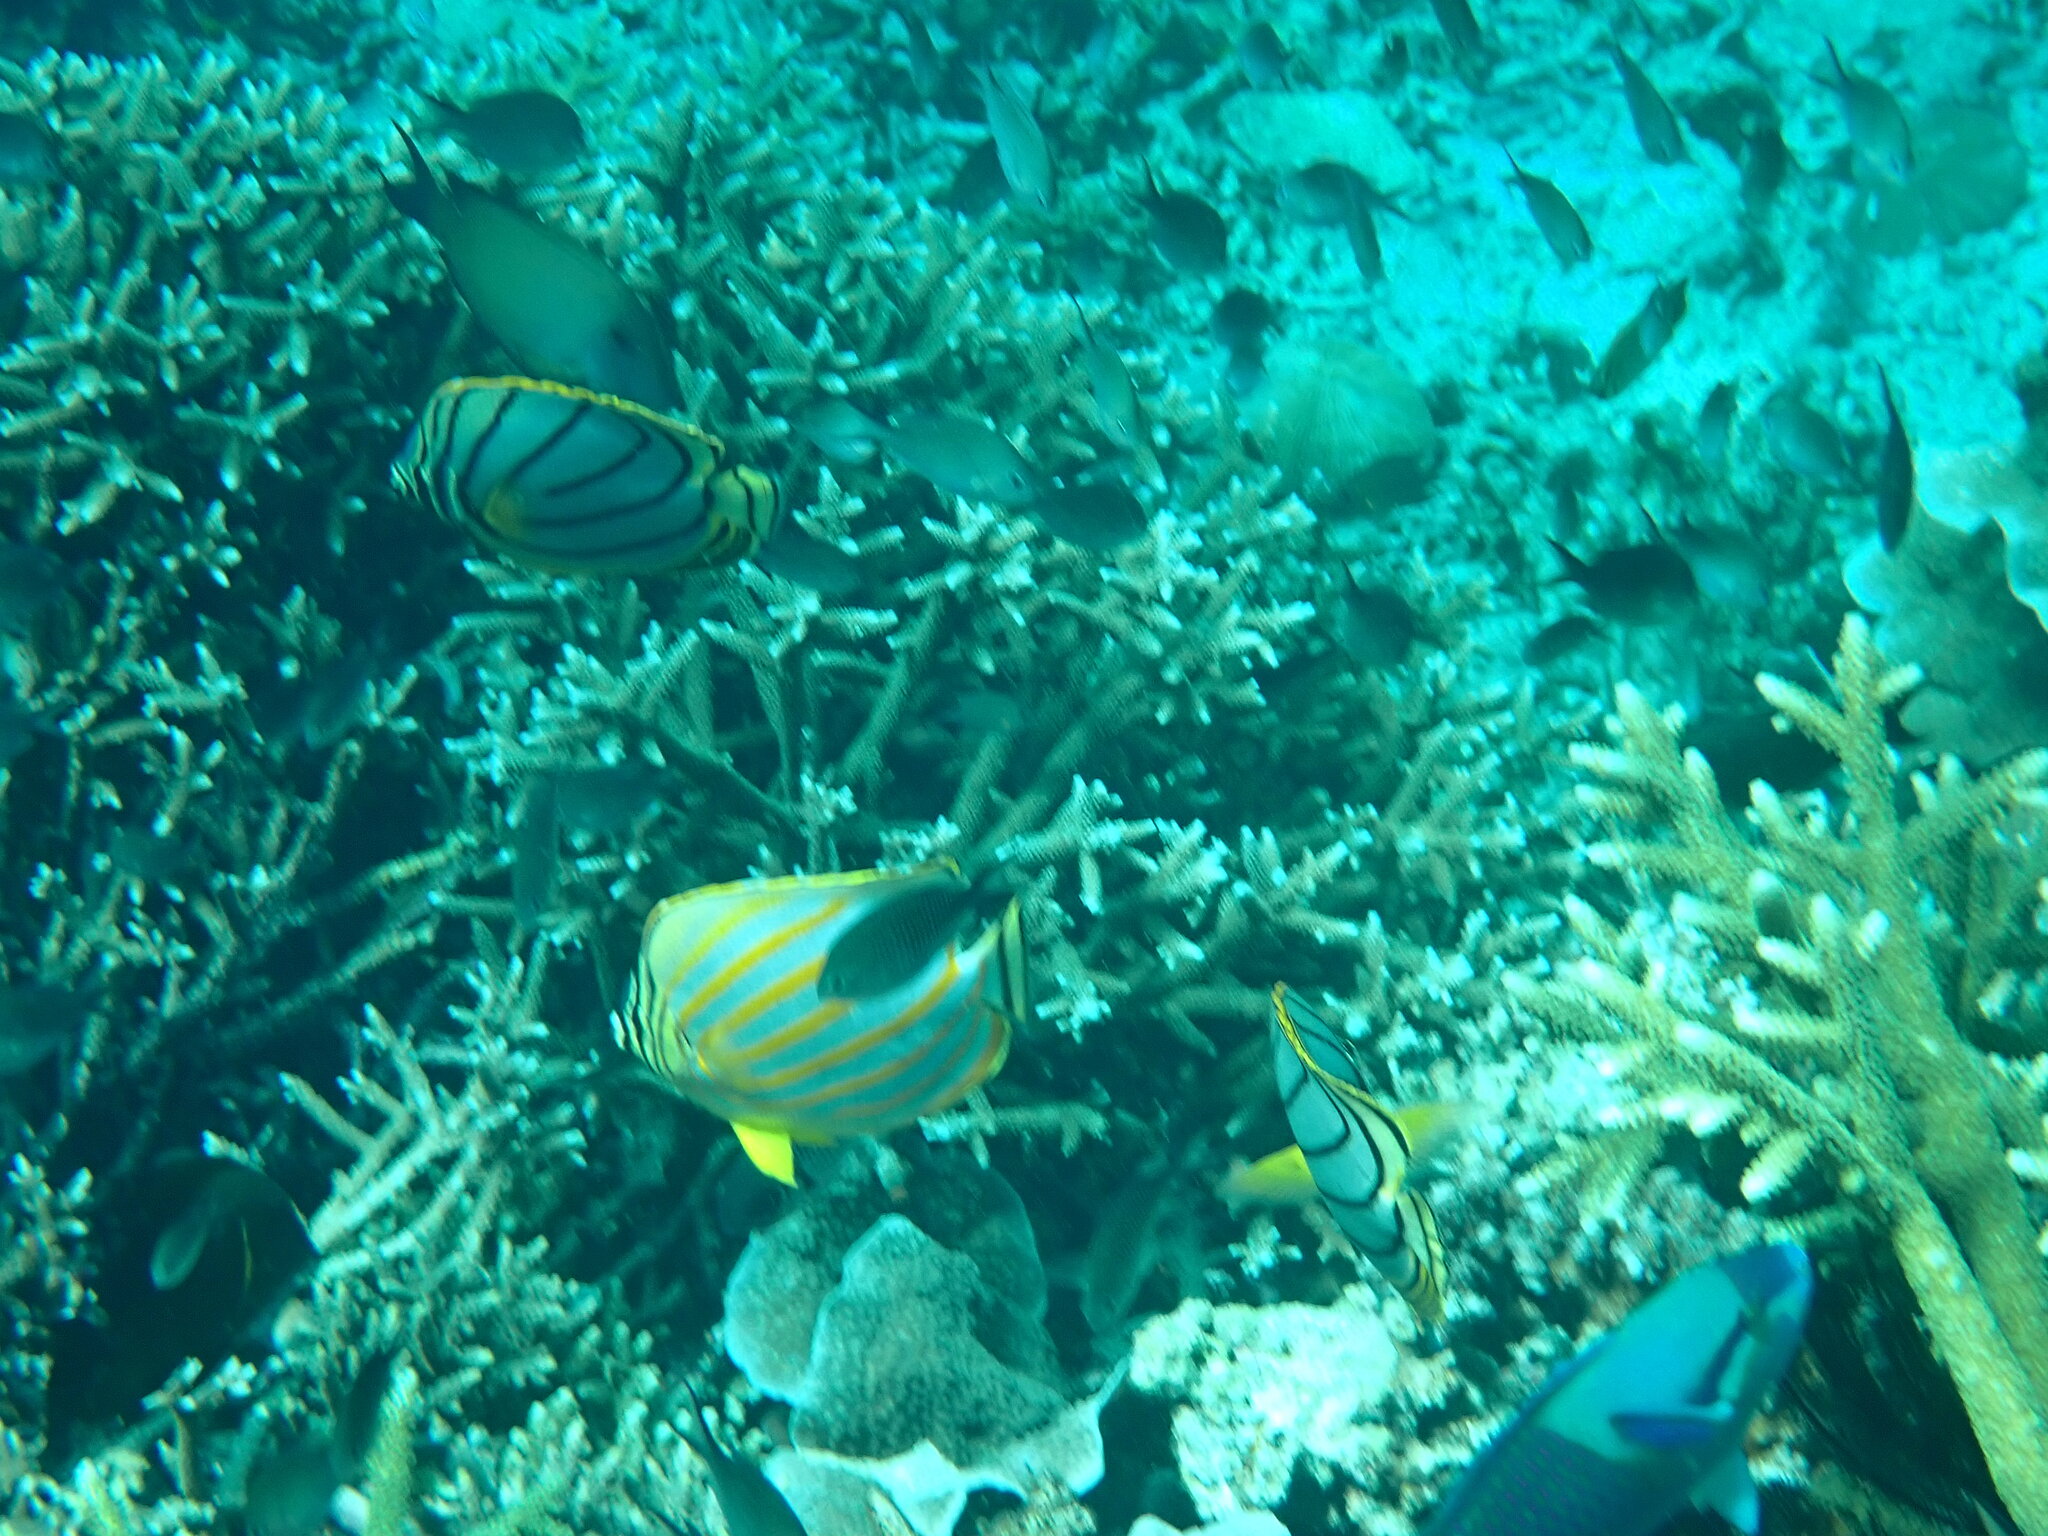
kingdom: Animalia
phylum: Chordata
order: Perciformes
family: Chaetodontidae
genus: Chaetodon
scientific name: Chaetodon ornatissimus
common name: Ornate butterflyfish
